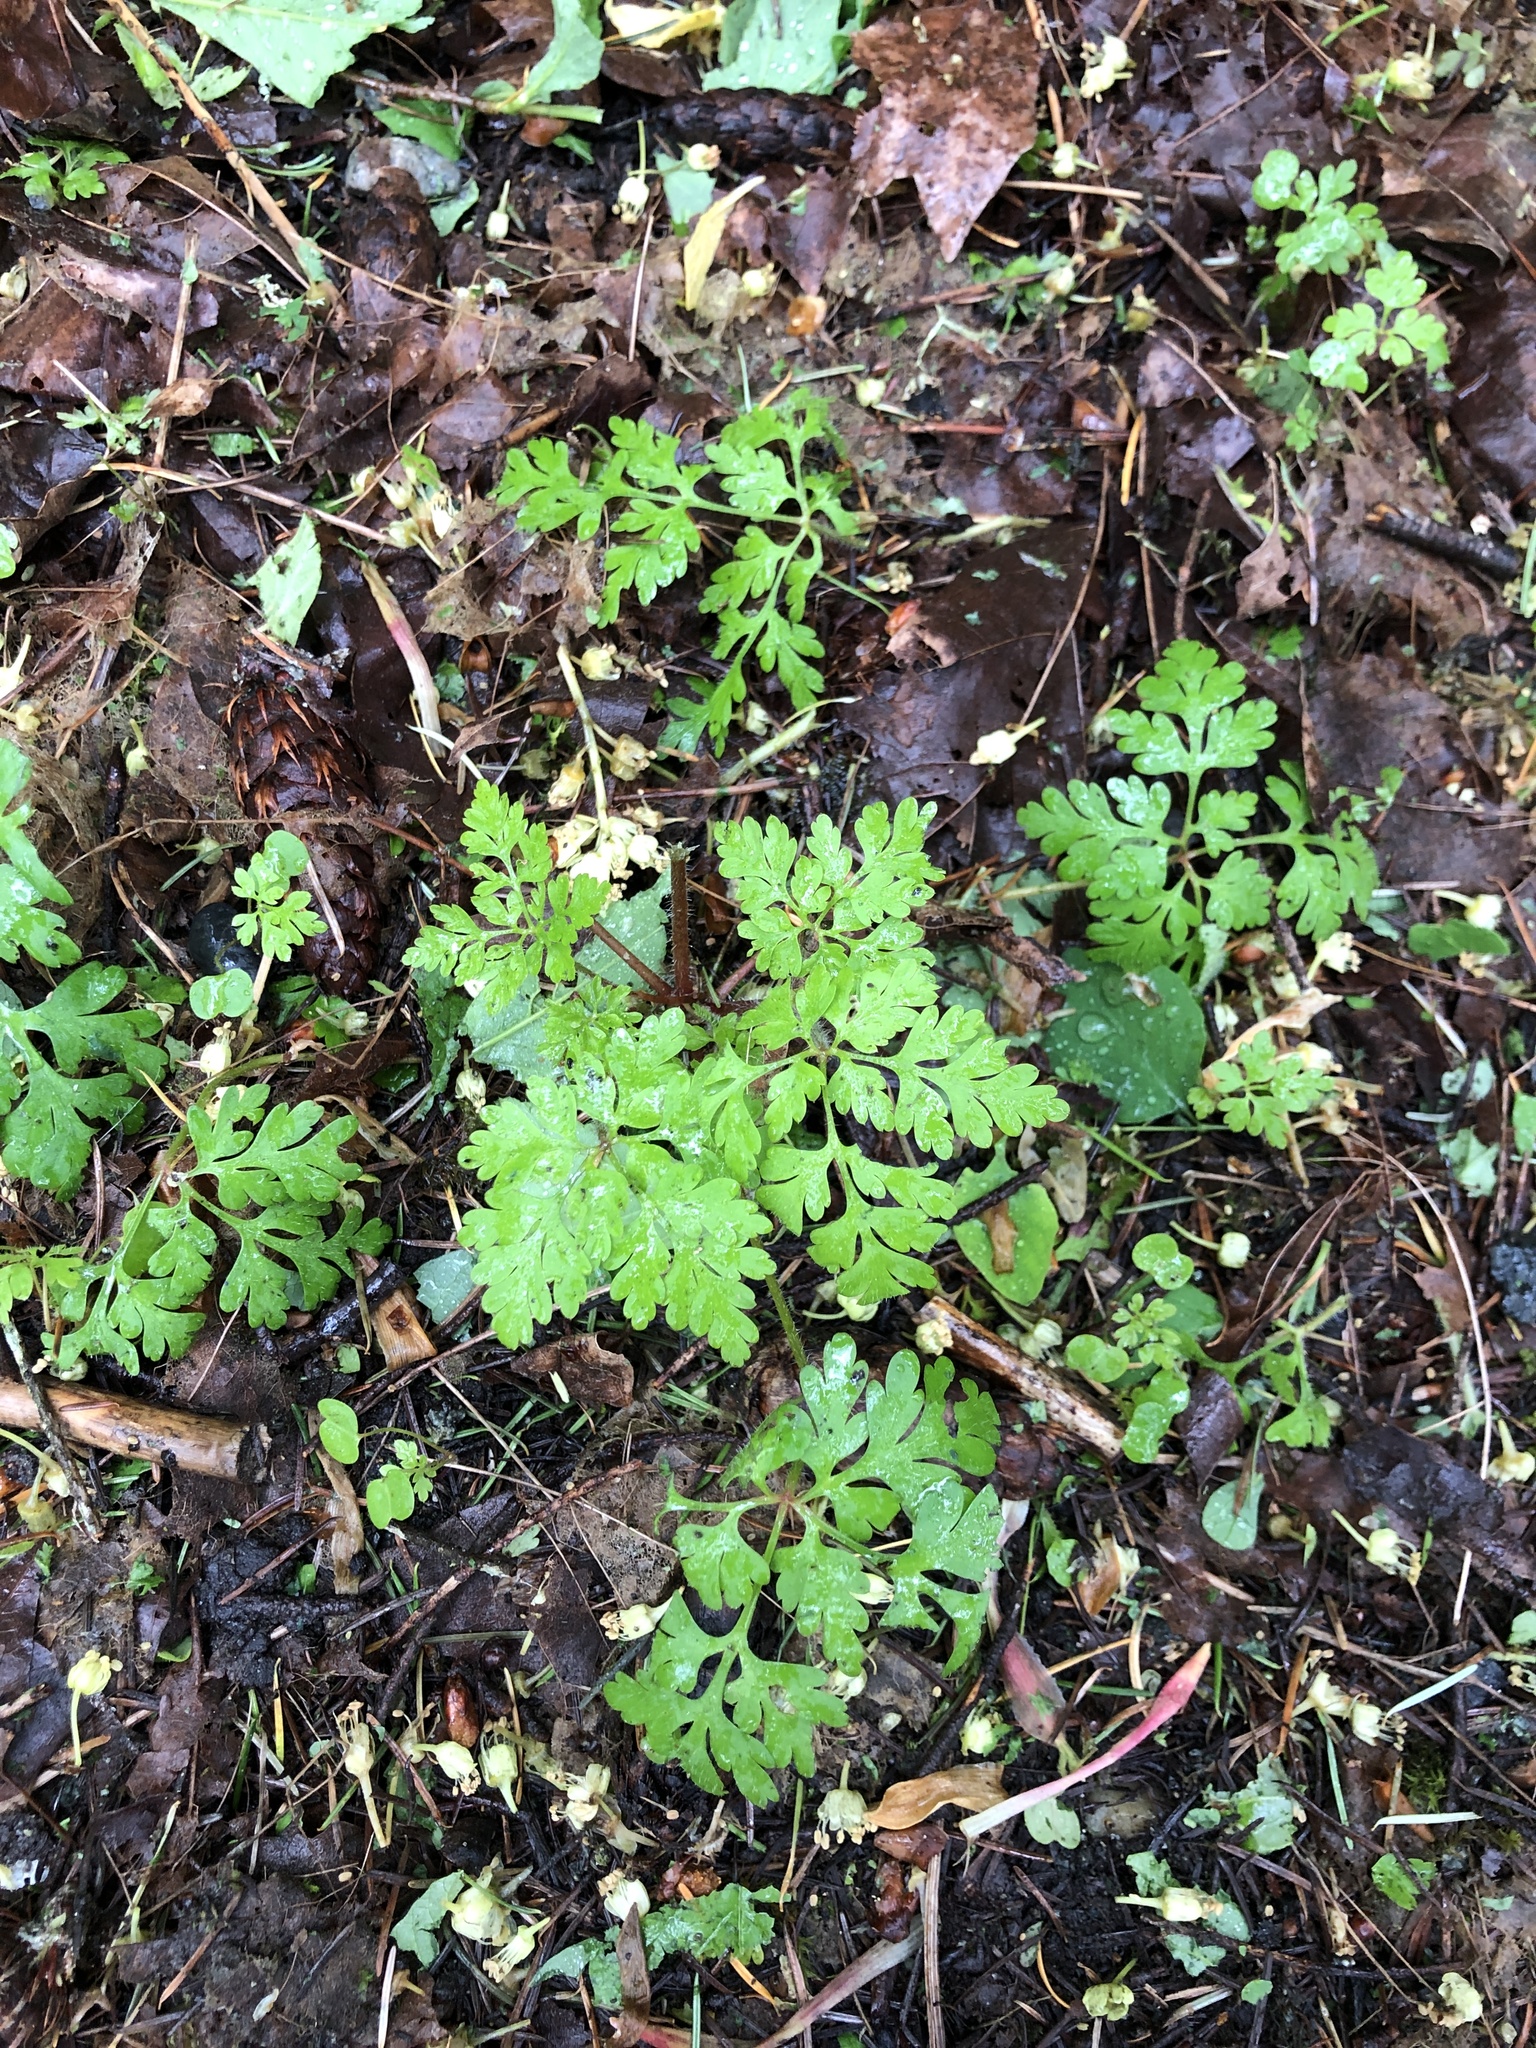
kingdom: Plantae
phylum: Tracheophyta
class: Magnoliopsida
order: Geraniales
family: Geraniaceae
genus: Geranium
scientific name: Geranium robertianum
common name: Herb-robert
